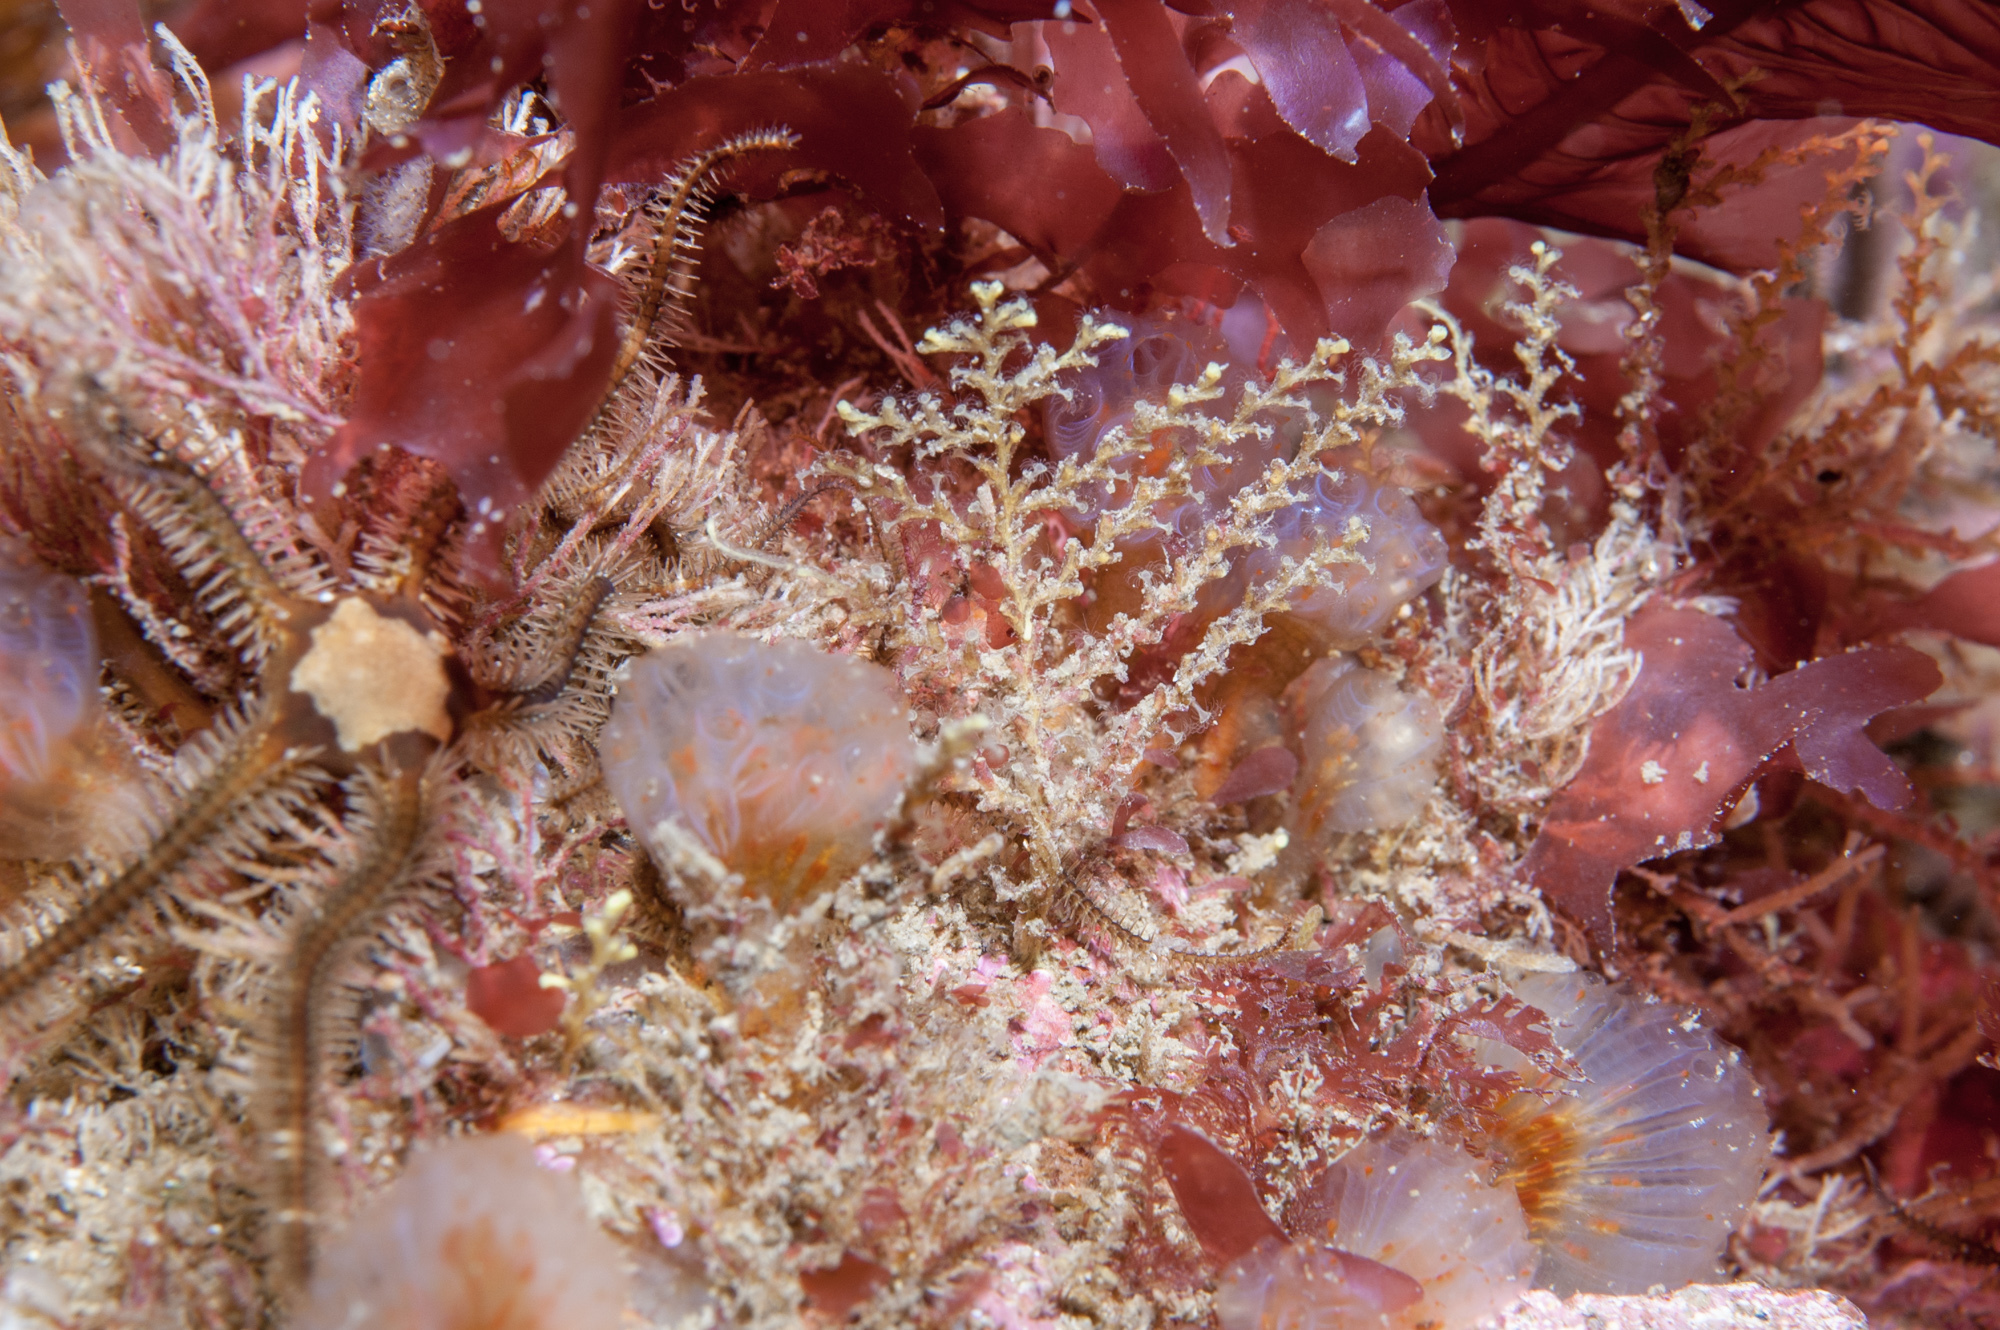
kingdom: Animalia
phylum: Cnidaria
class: Hydrozoa
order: Leptothecata
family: Sertularellidae
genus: Sertularella
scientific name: Sertularella gayi
